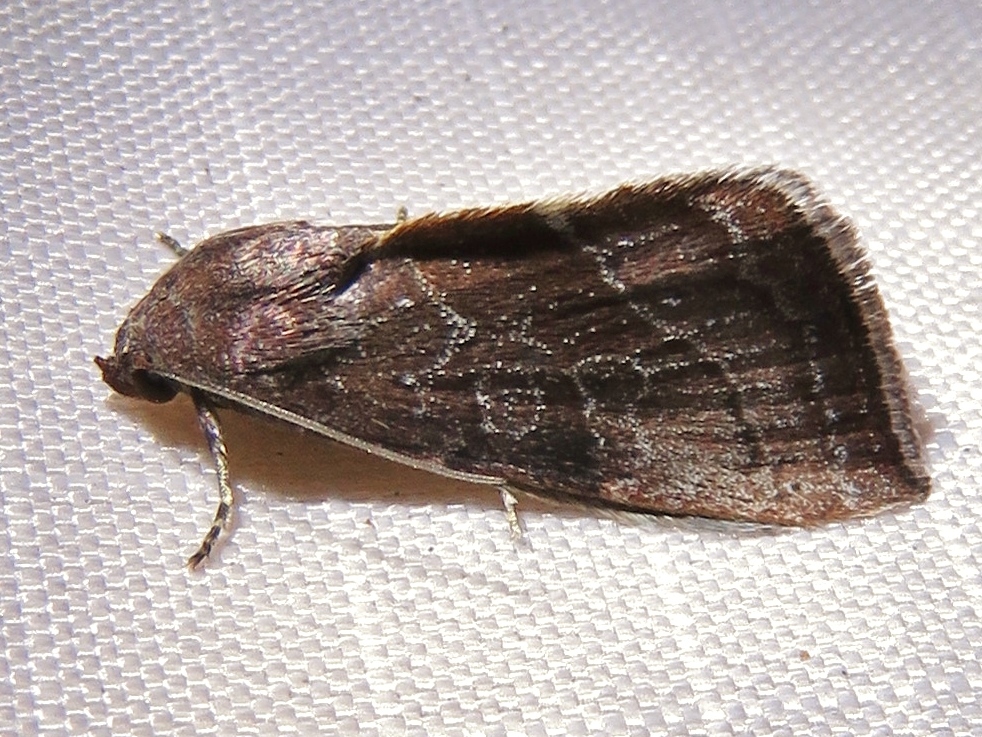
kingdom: Animalia
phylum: Arthropoda
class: Insecta
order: Lepidoptera
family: Noctuidae
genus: Galgula
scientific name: Galgula partita
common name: Wedgeling
